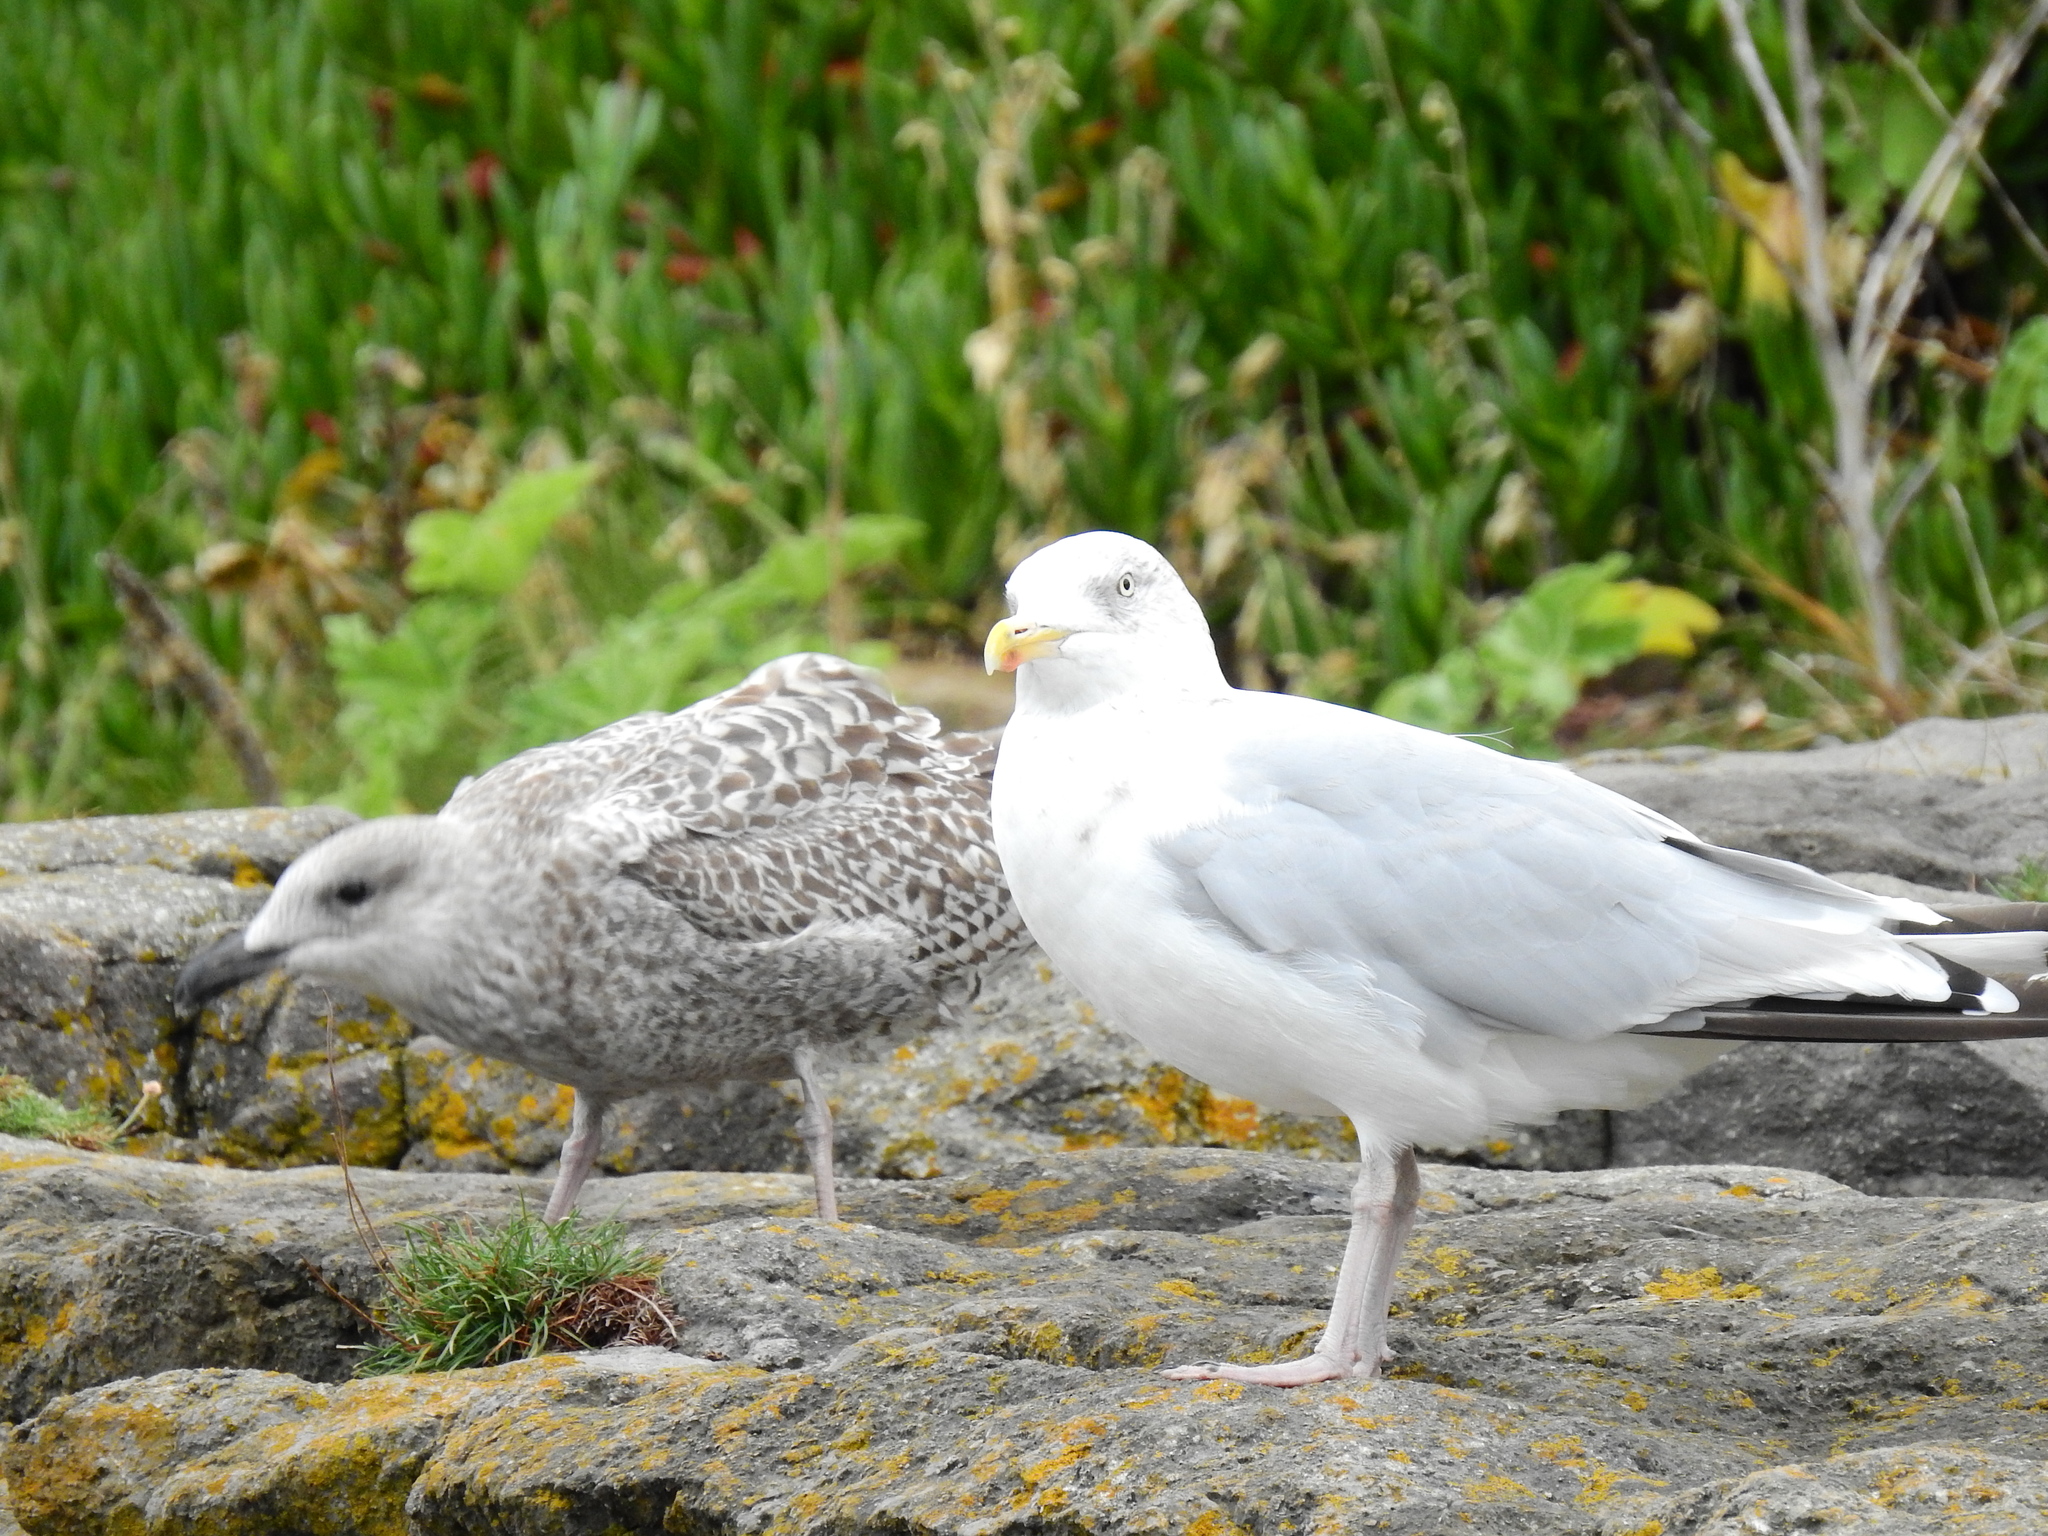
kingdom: Animalia
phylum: Chordata
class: Aves
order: Charadriiformes
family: Laridae
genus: Larus
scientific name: Larus argentatus
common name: Herring gull
